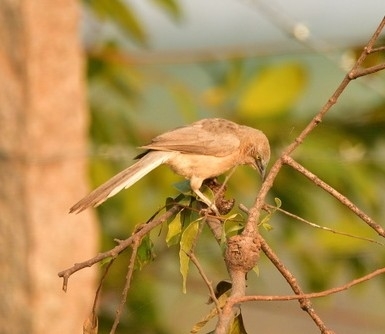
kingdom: Animalia
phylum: Chordata
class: Aves
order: Passeriformes
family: Leiothrichidae
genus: Turdoides
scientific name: Turdoides malcolmi
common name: Large grey babbler
